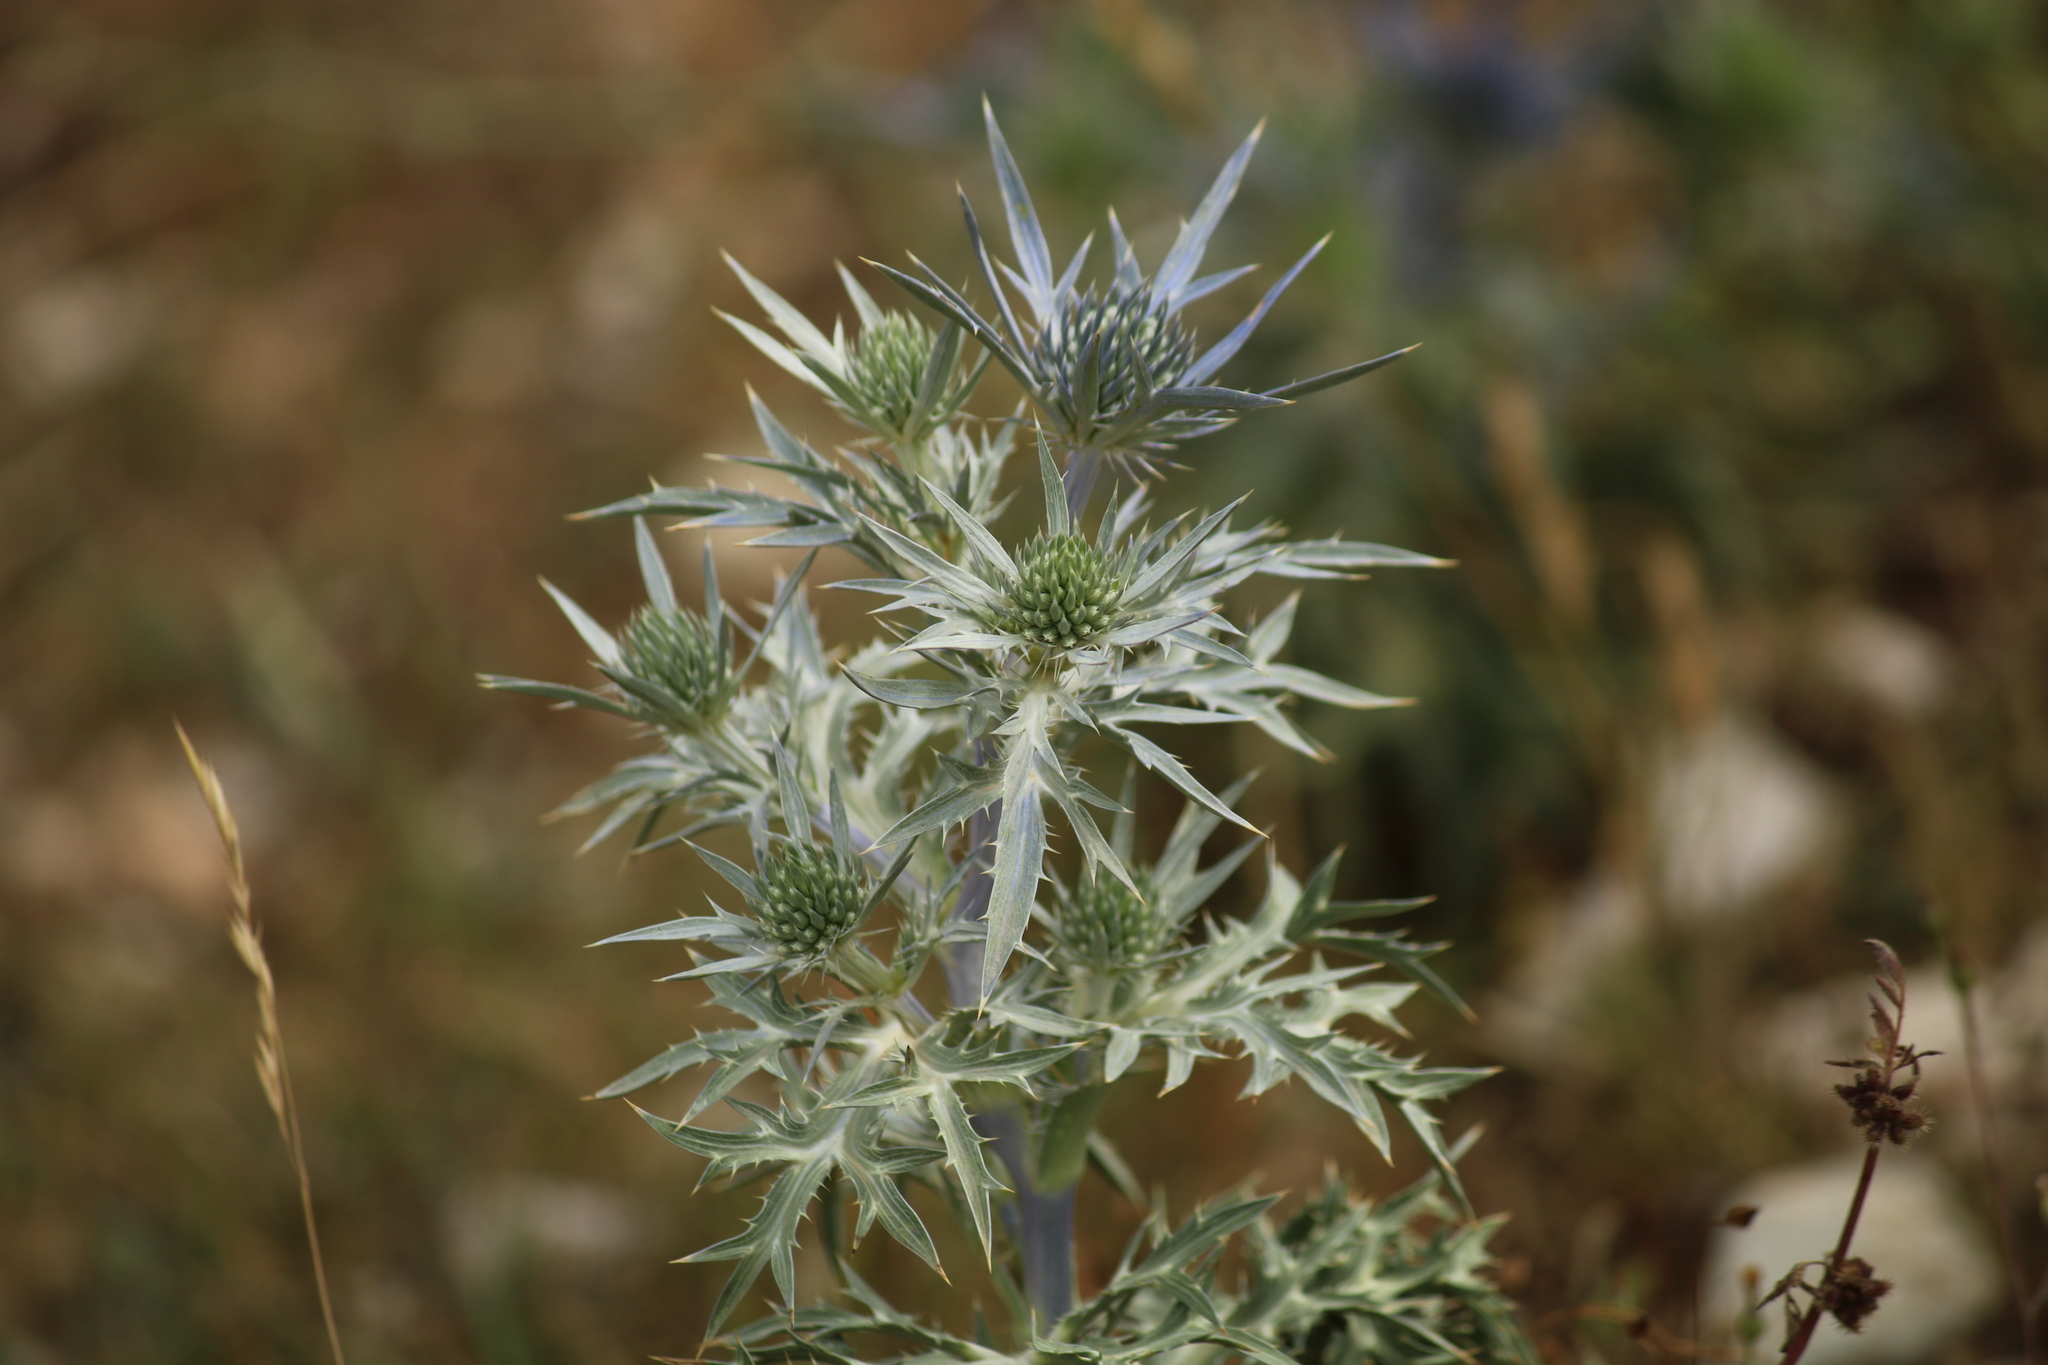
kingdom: Plantae
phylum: Tracheophyta
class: Magnoliopsida
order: Apiales
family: Apiaceae
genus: Eryngium
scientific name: Eryngium amethystinum
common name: Amethyst eryngo
